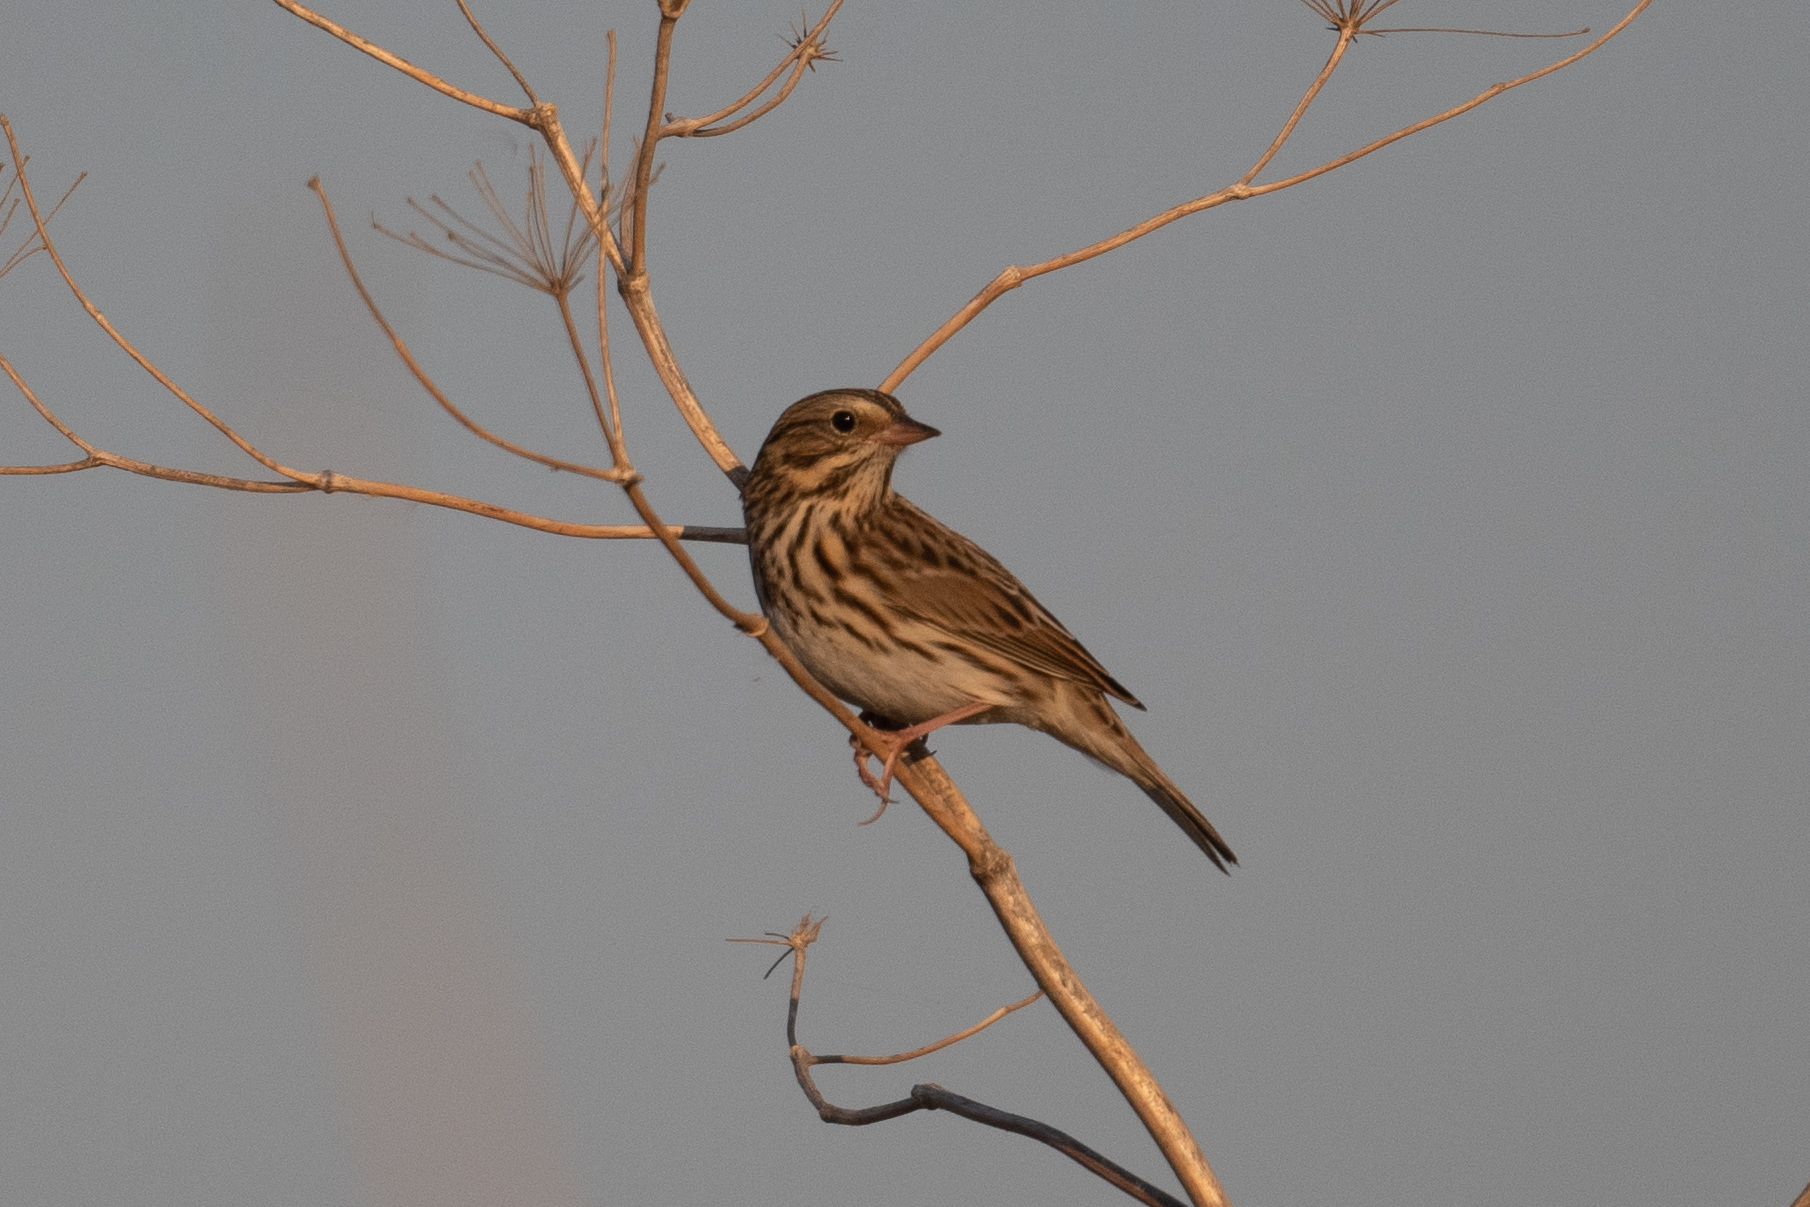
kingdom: Animalia
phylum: Chordata
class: Aves
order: Passeriformes
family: Passerellidae
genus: Passerculus
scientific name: Passerculus sandwichensis
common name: Savannah sparrow
